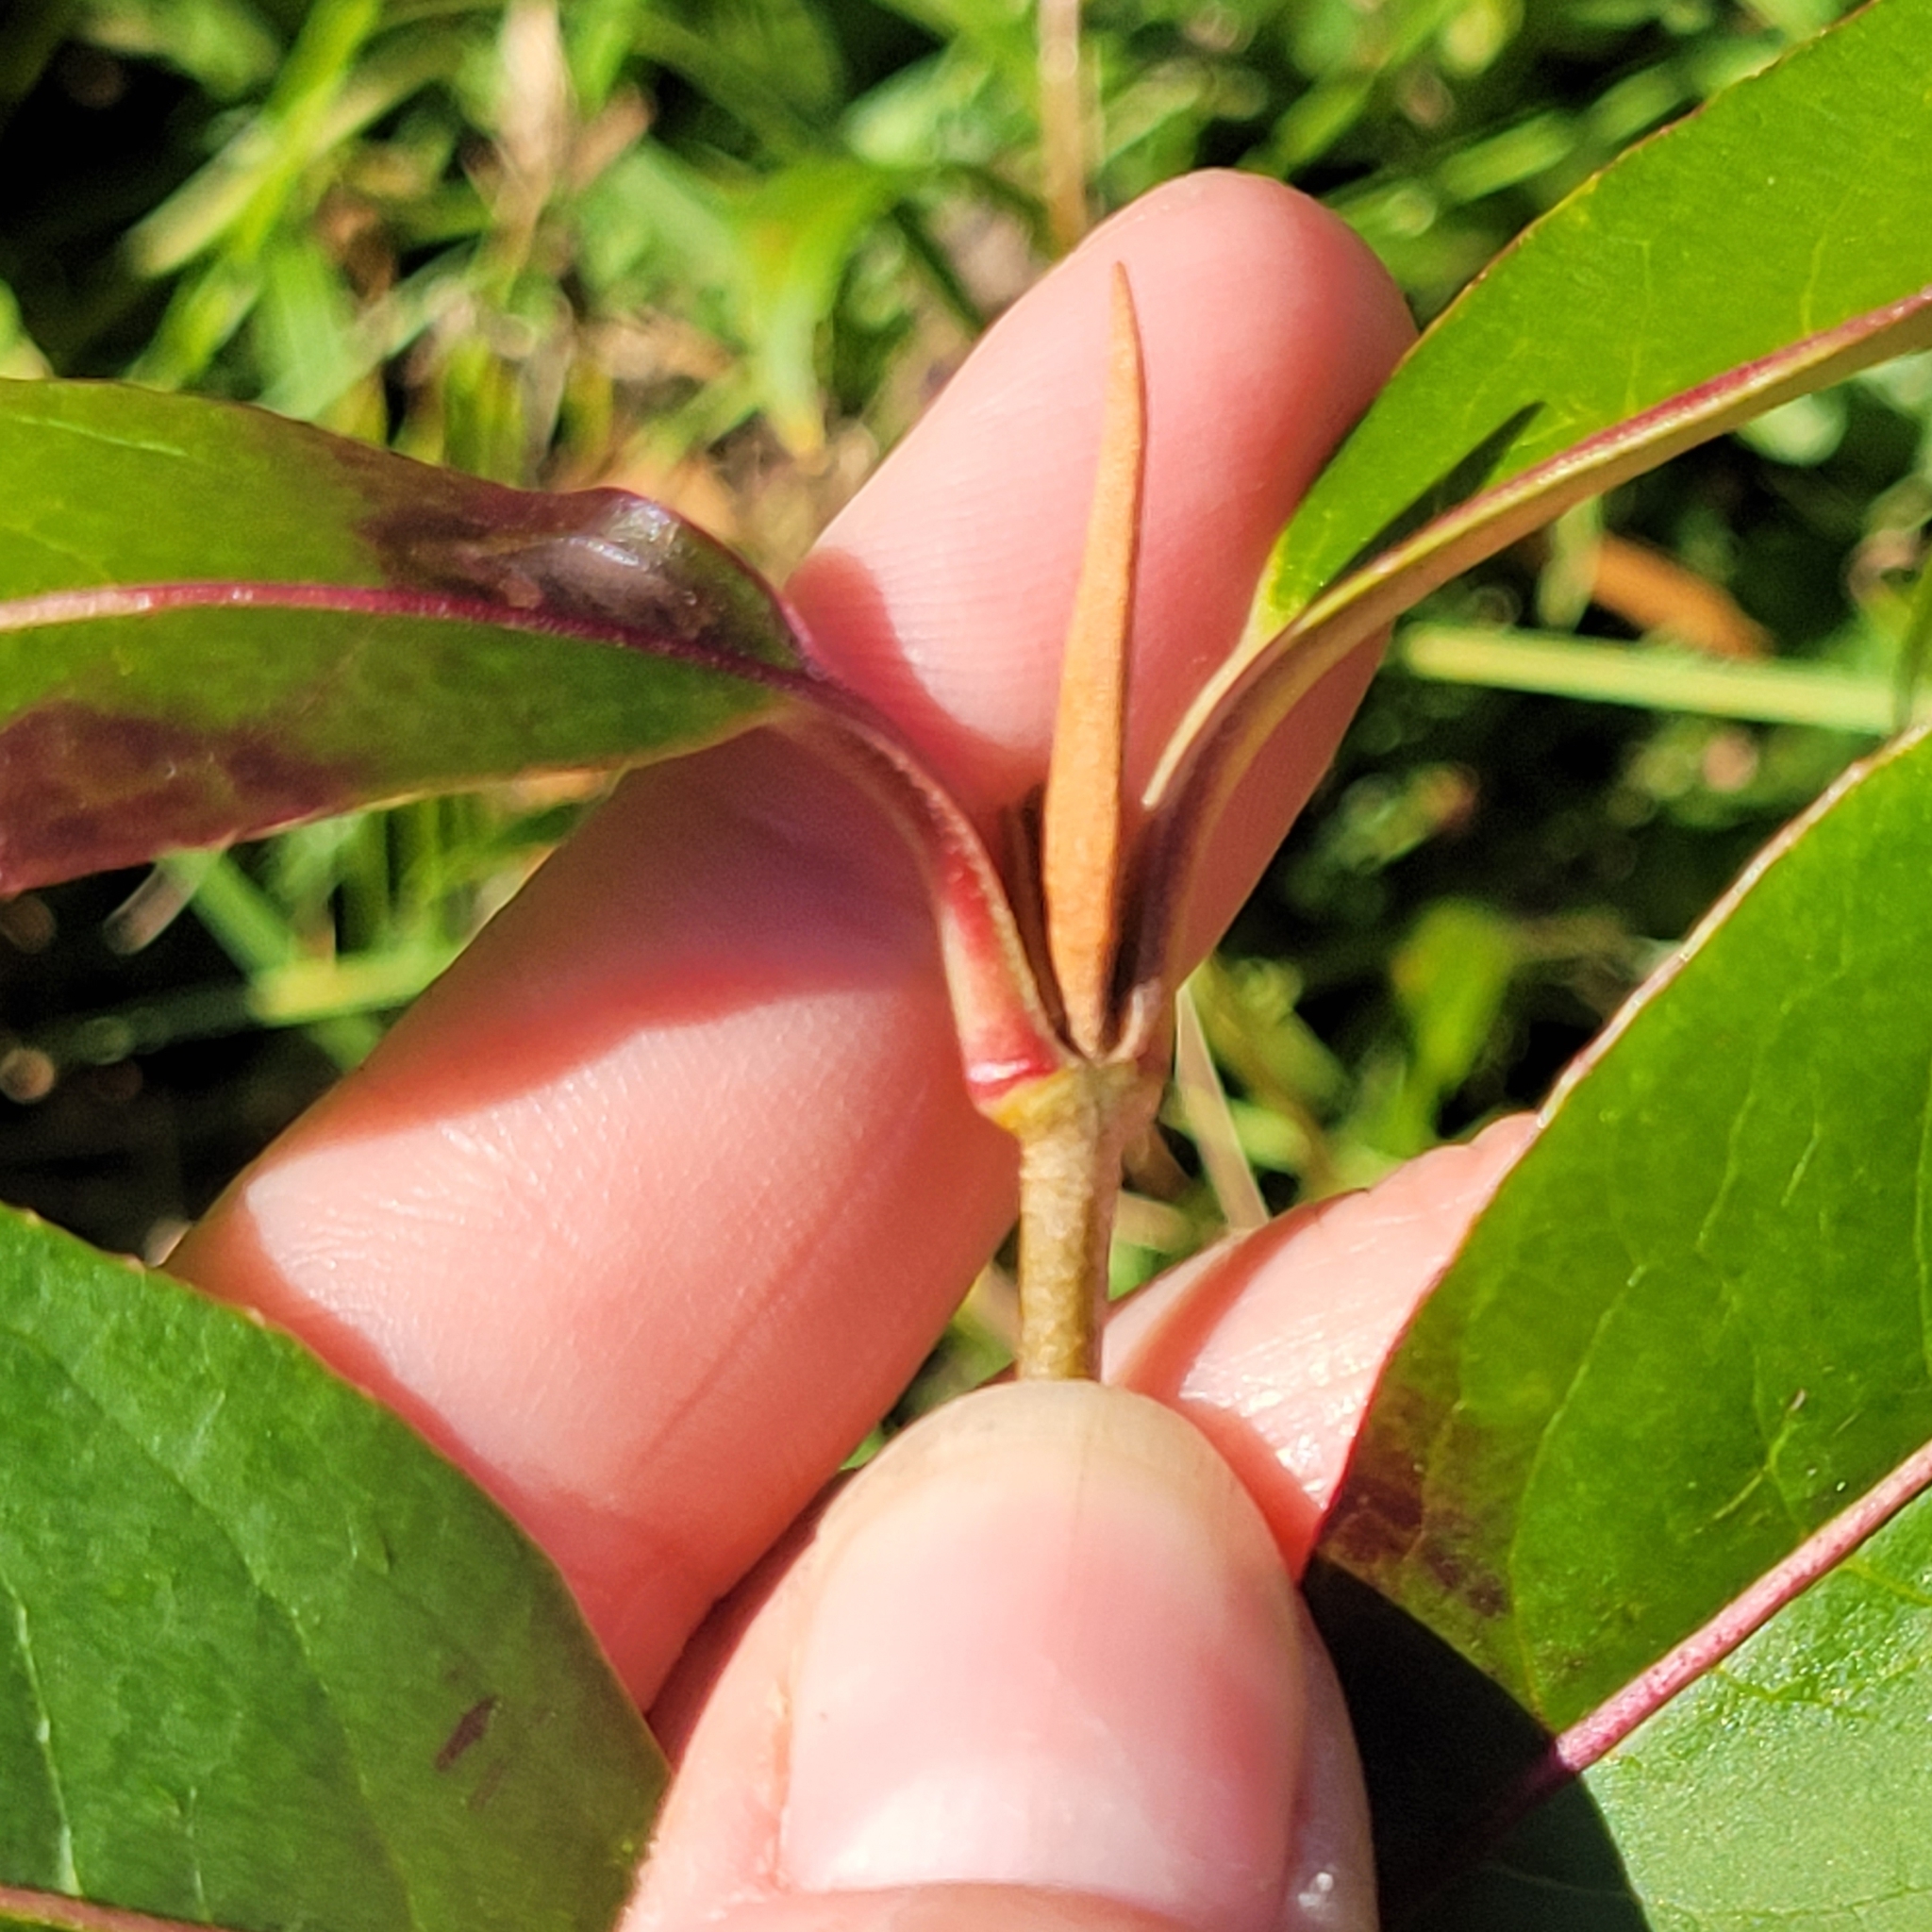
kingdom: Plantae
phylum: Tracheophyta
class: Magnoliopsida
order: Dipsacales
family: Viburnaceae
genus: Viburnum
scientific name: Viburnum cassinoides
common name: Swamp haw
